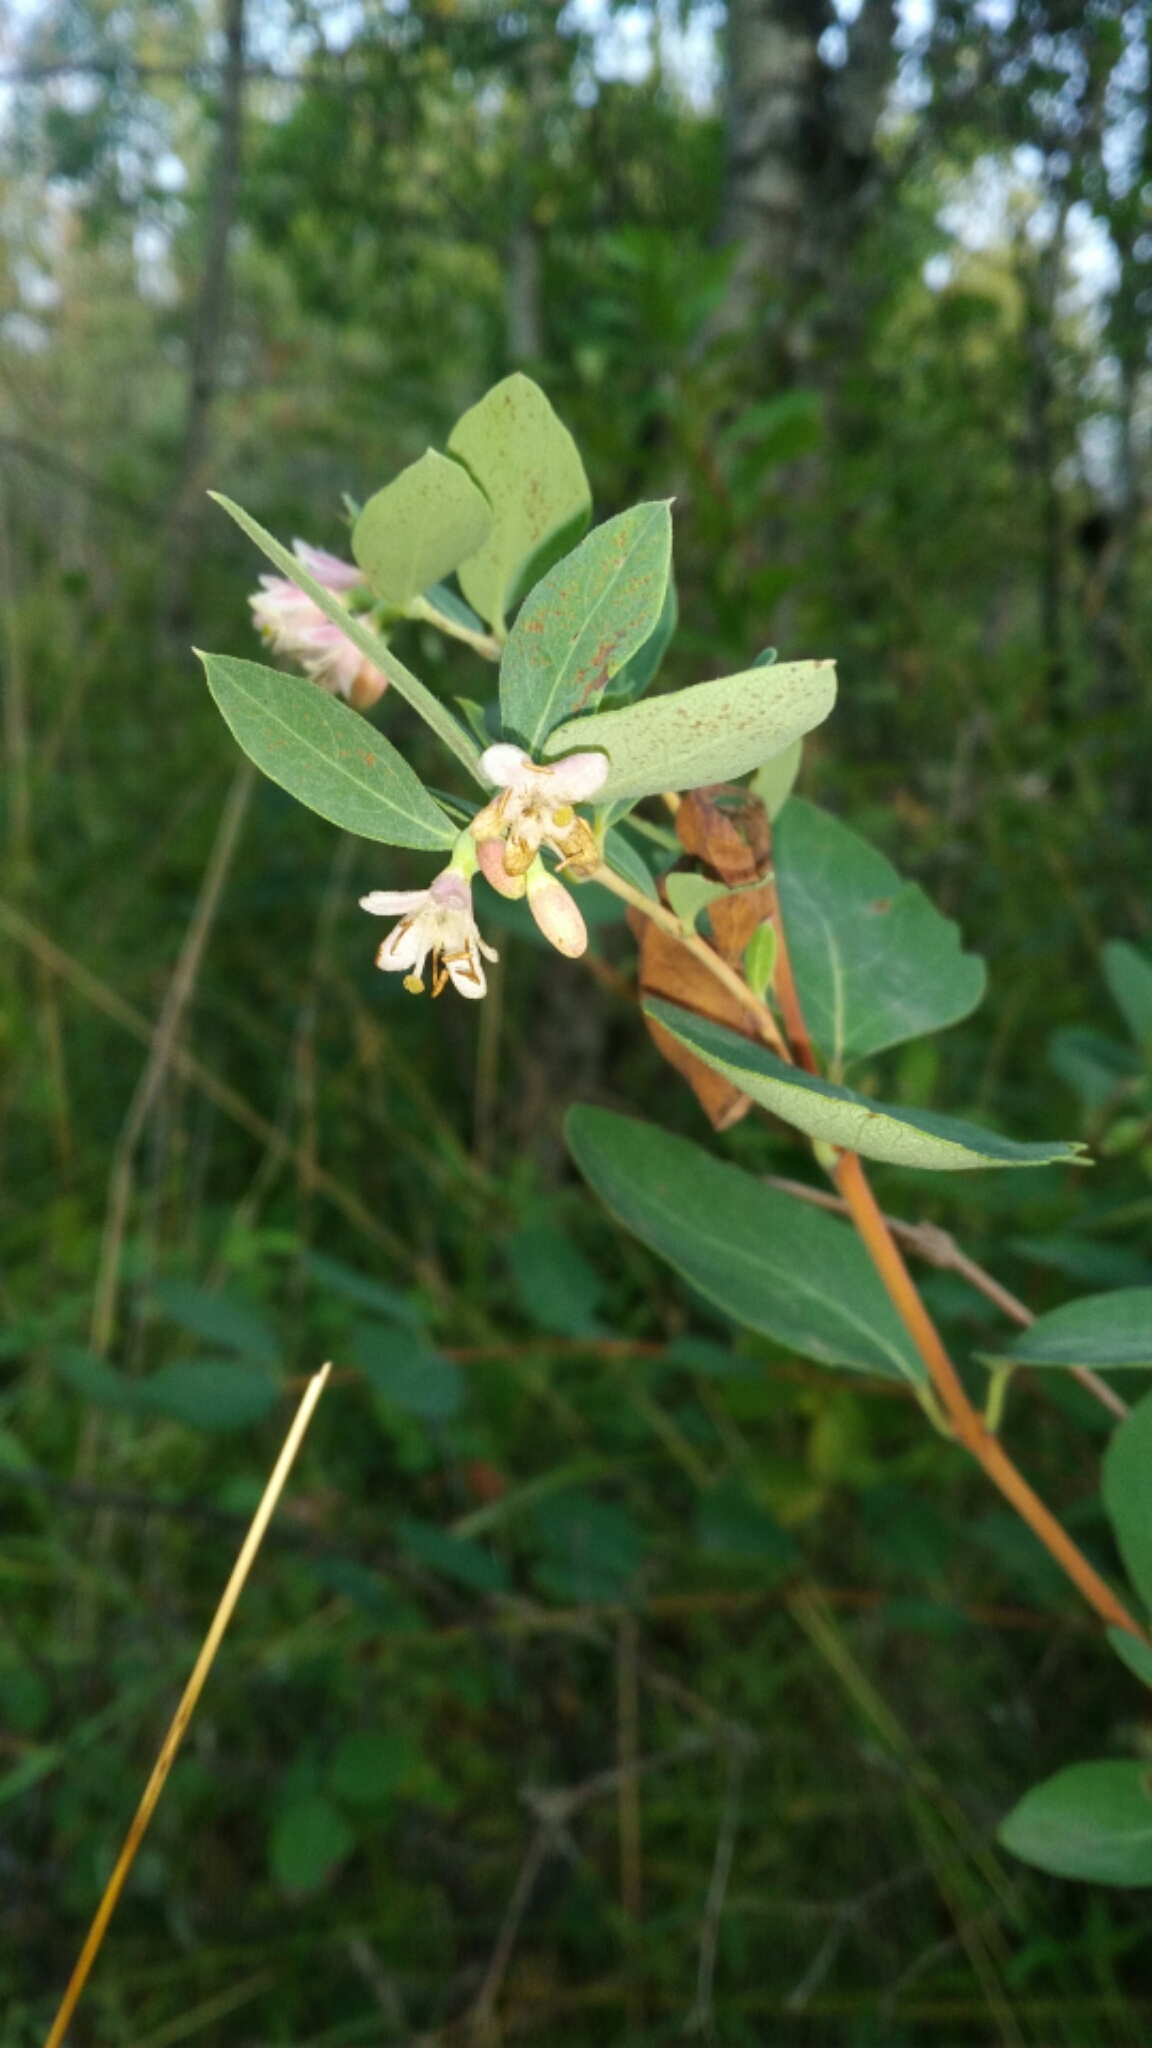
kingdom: Plantae
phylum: Tracheophyta
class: Magnoliopsida
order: Dipsacales
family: Caprifoliaceae
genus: Symphoricarpos
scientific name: Symphoricarpos occidentalis
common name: Wolfberry
